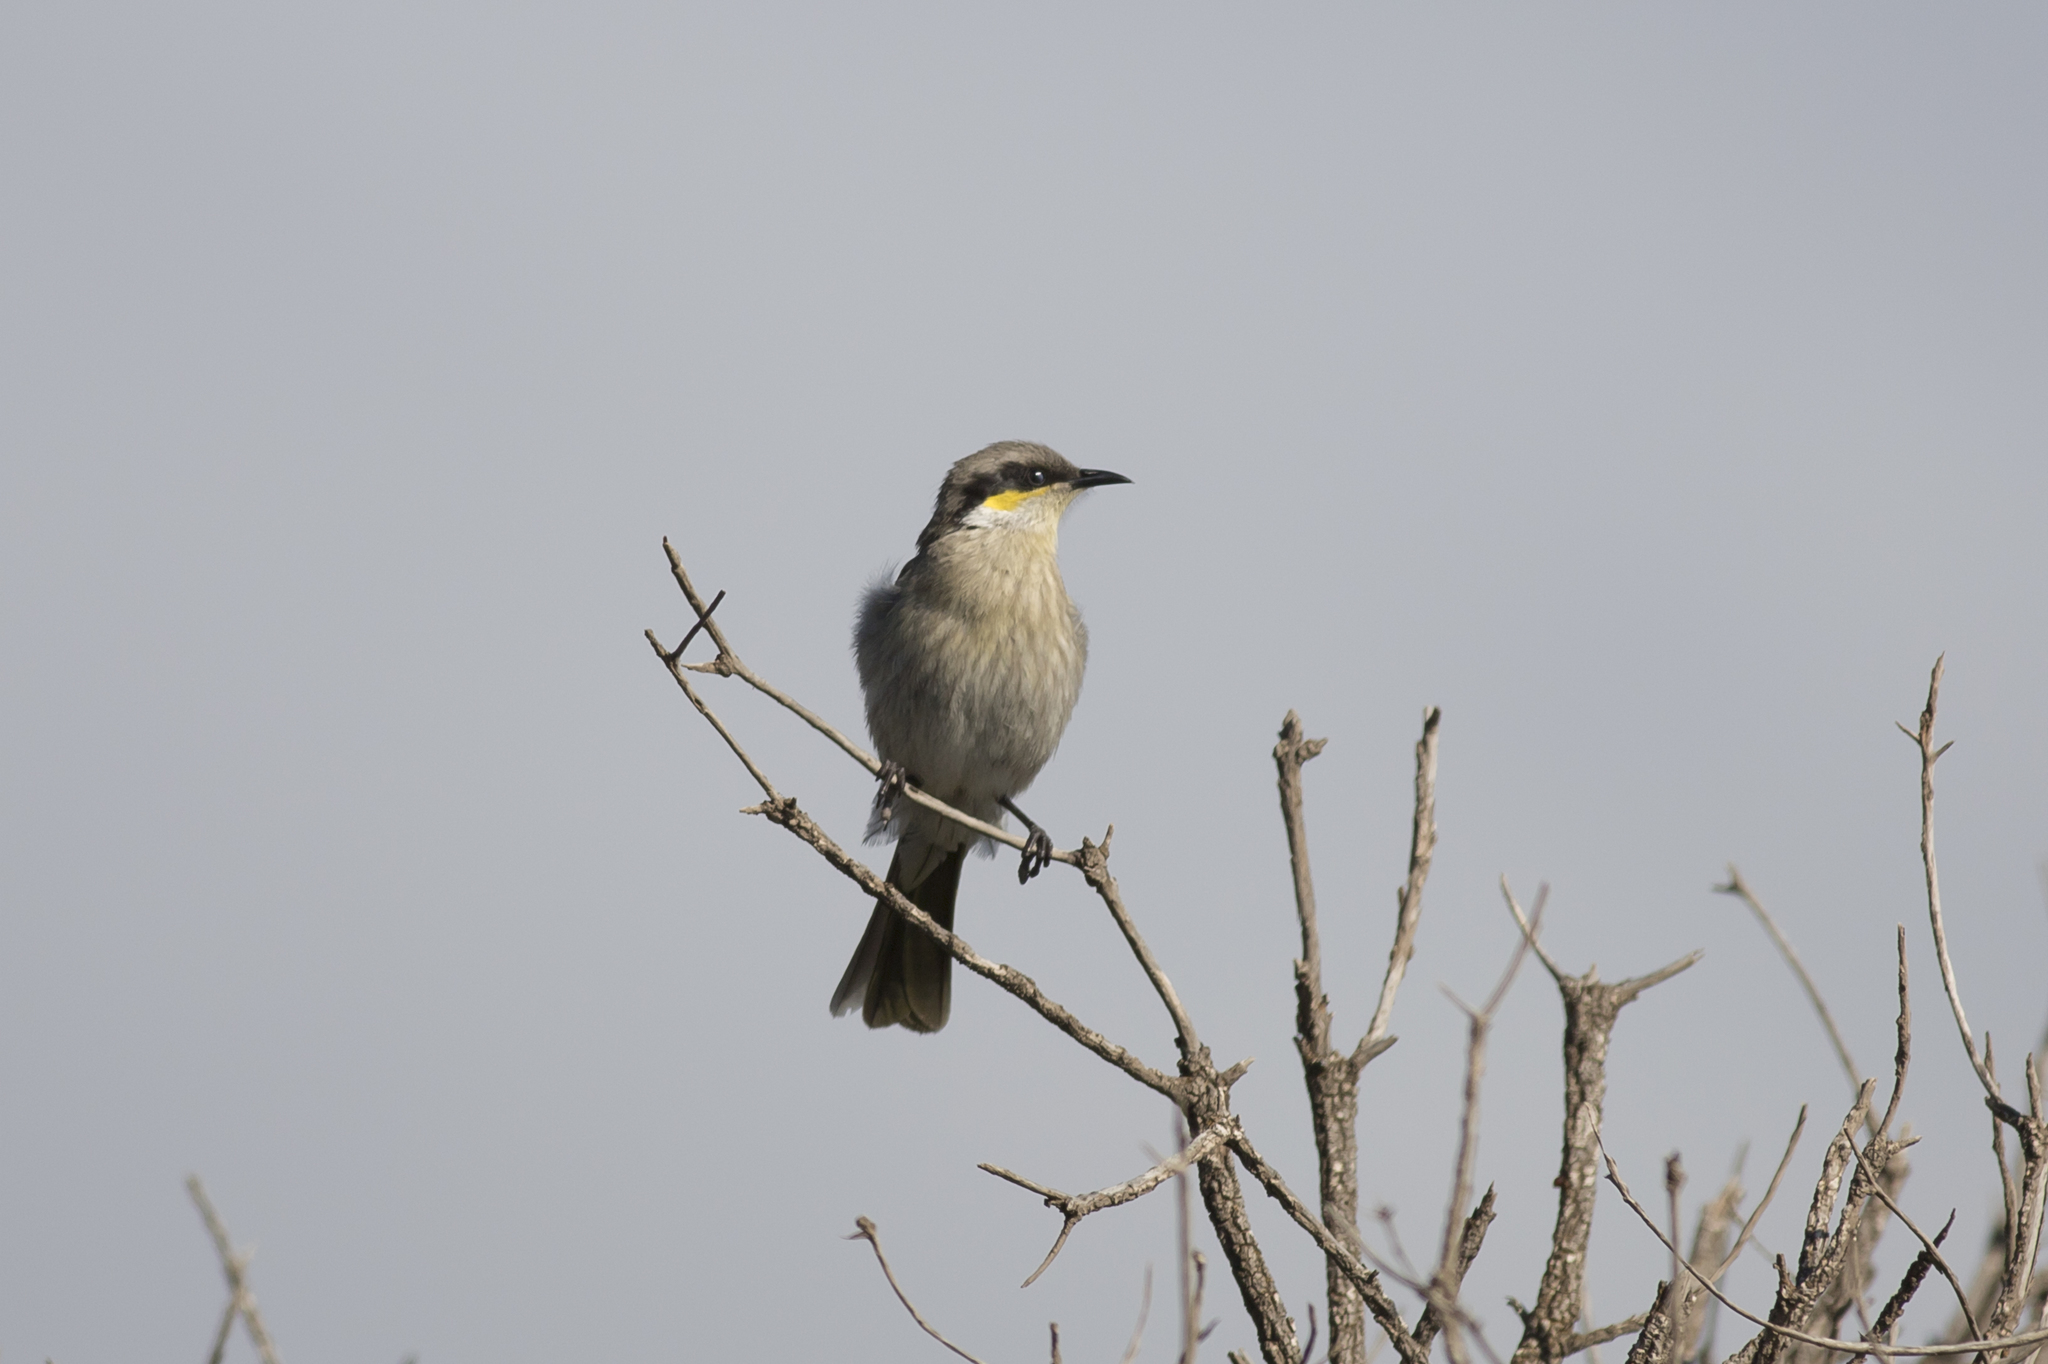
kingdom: Animalia
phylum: Chordata
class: Aves
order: Passeriformes
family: Meliphagidae
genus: Gavicalis
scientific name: Gavicalis virescens
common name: Singing honeyeater
